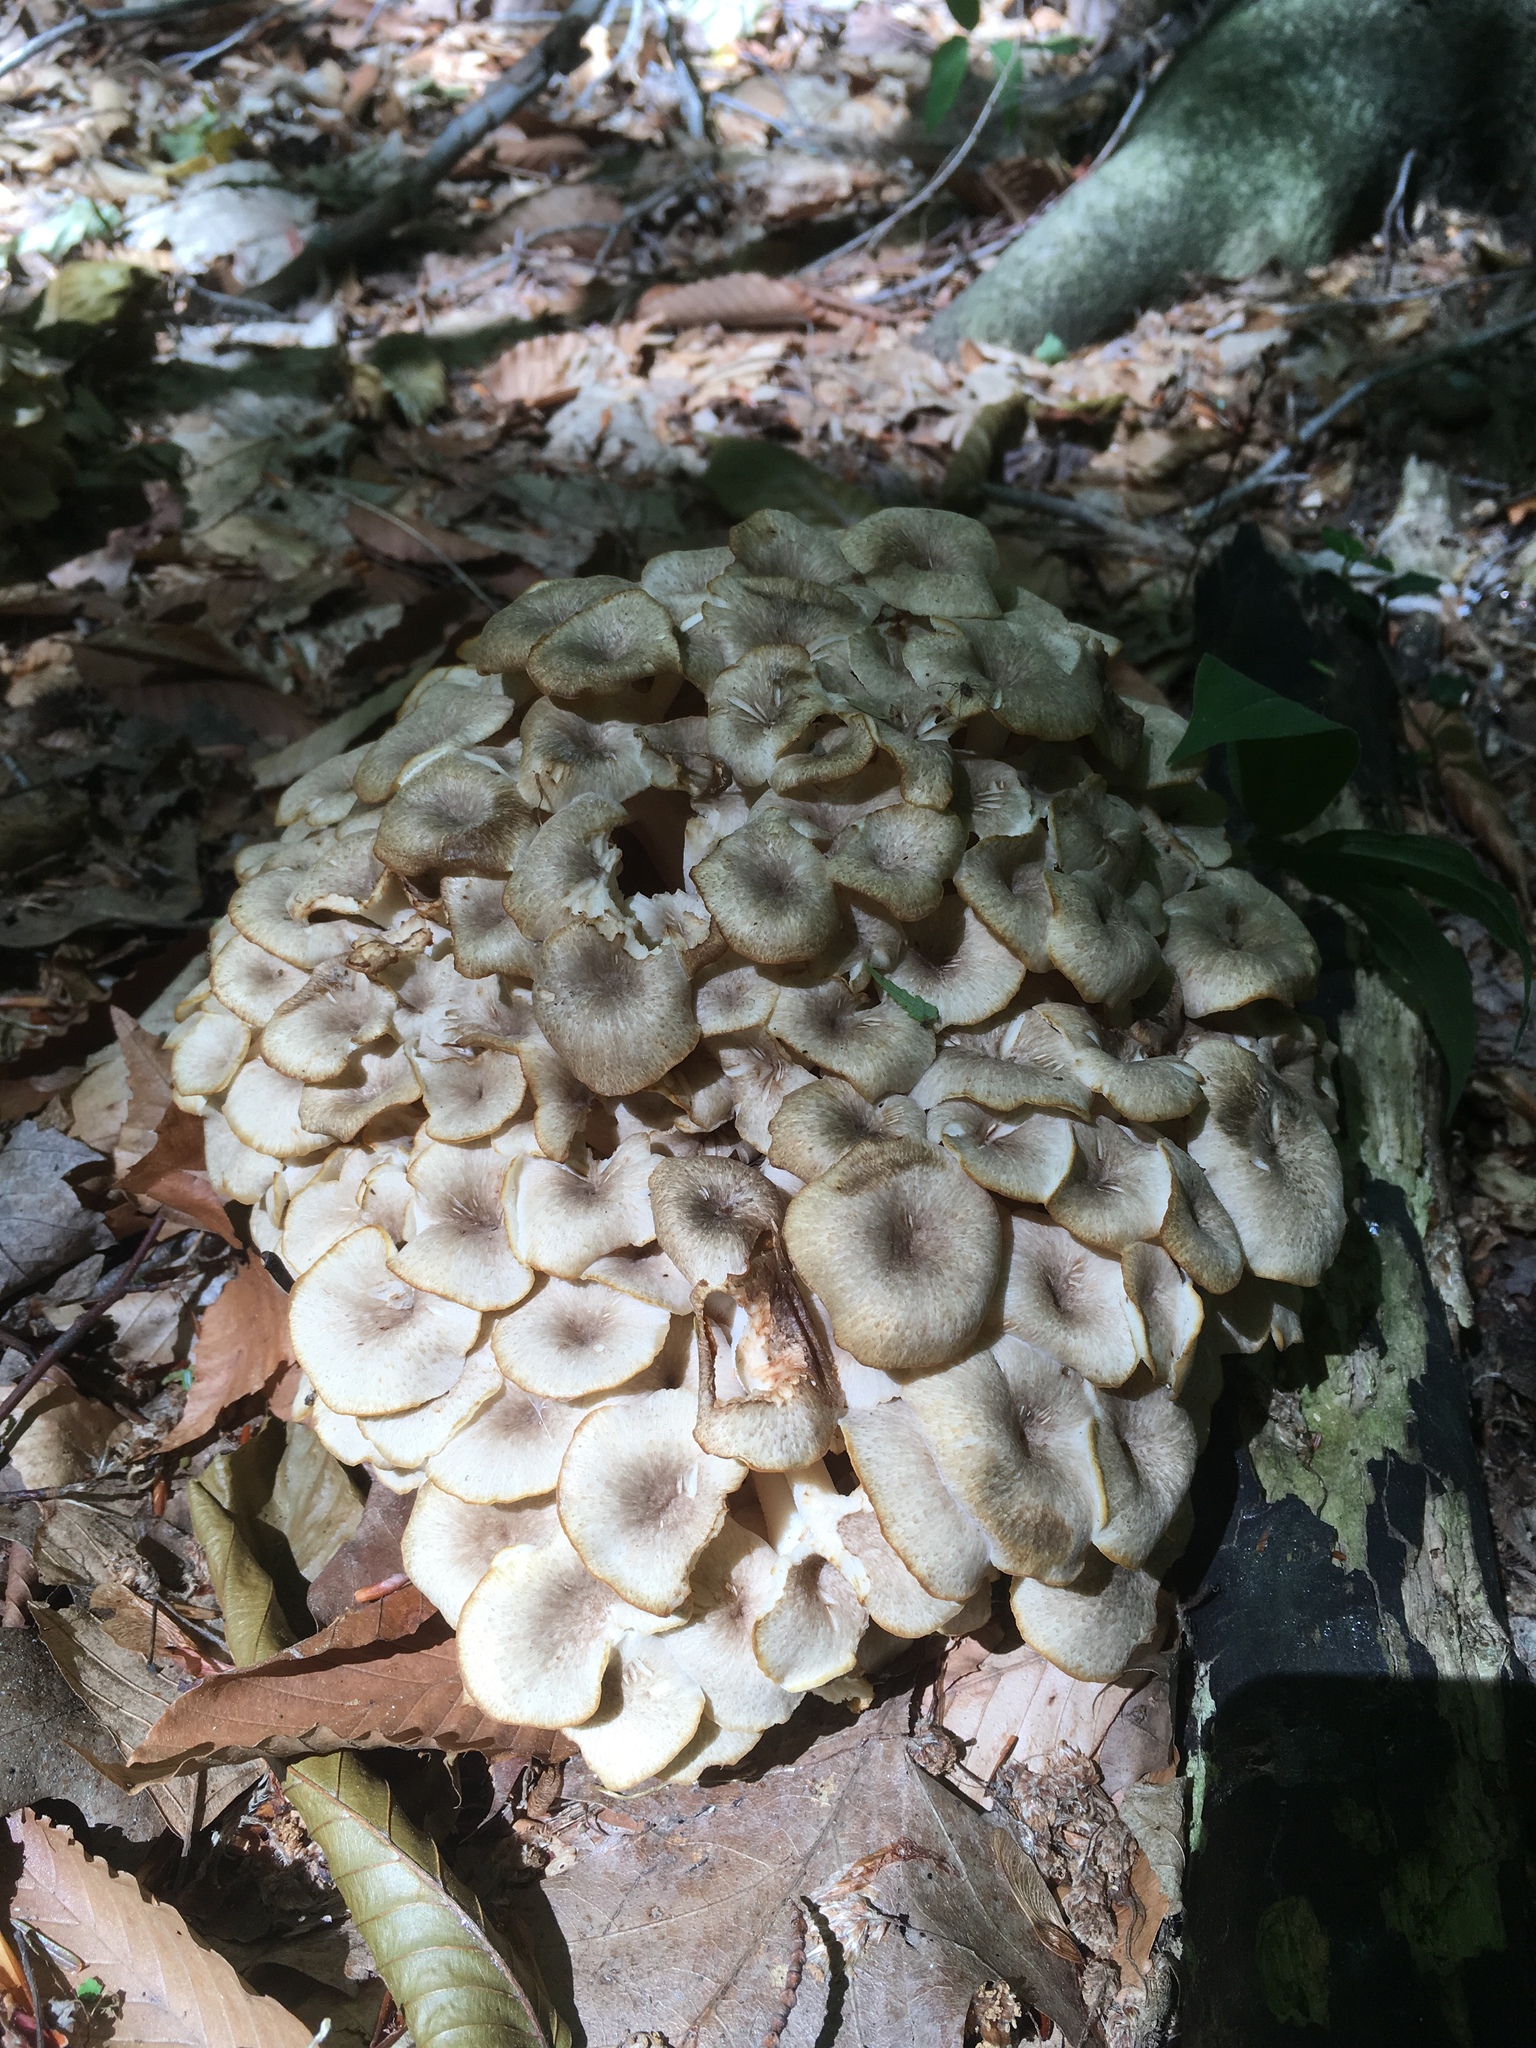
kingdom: Fungi
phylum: Basidiomycota
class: Agaricomycetes
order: Polyporales
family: Polyporaceae
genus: Polyporus
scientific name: Polyporus umbellatus
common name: Umbrella polypore
